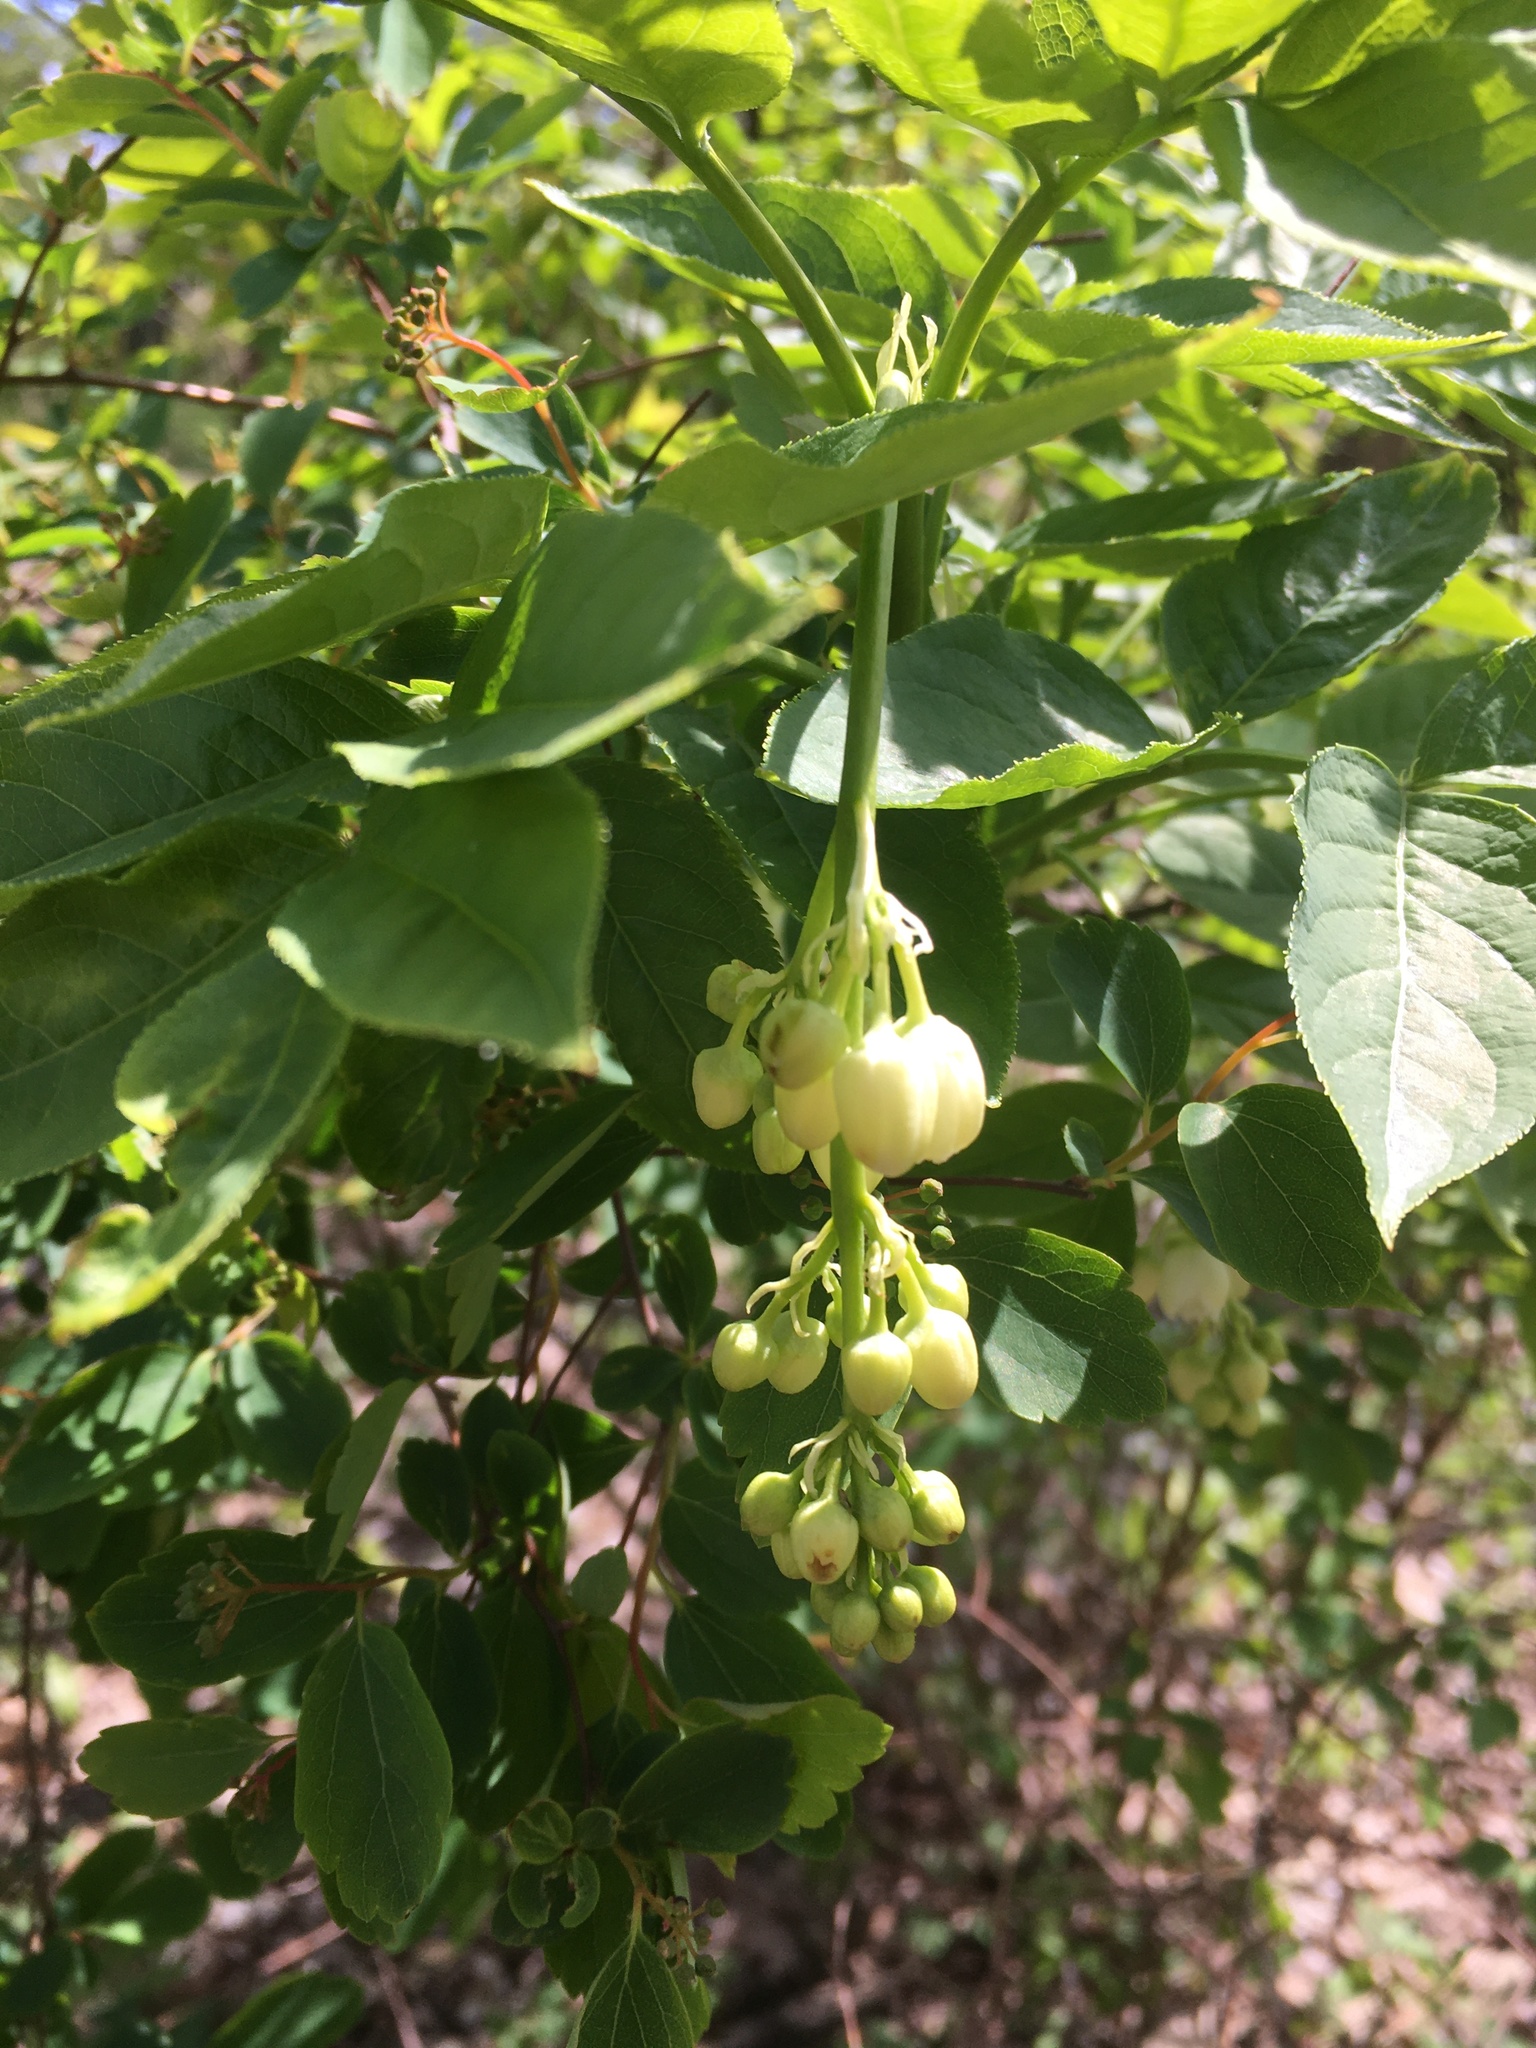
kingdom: Plantae
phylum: Tracheophyta
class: Magnoliopsida
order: Crossosomatales
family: Staphyleaceae
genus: Staphylea
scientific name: Staphylea pinnata
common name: Bladdernut
